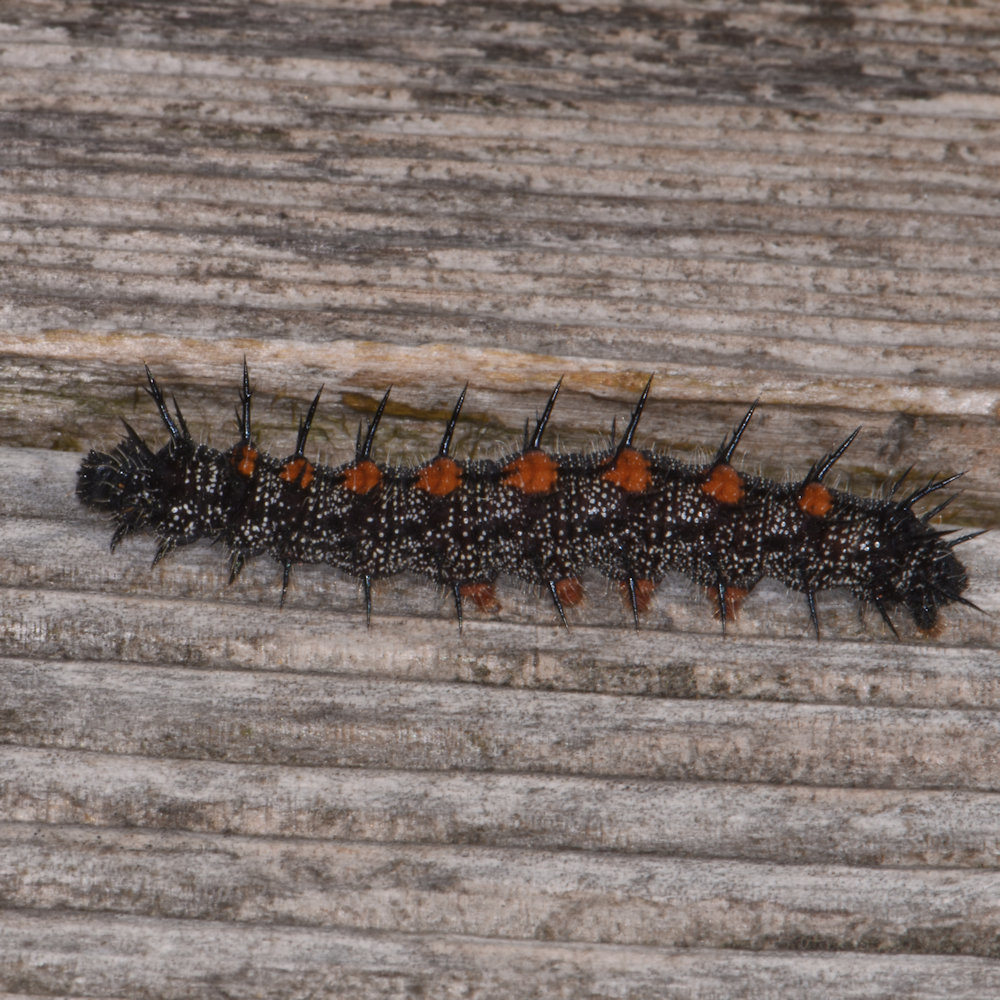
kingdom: Animalia
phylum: Arthropoda
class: Insecta
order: Lepidoptera
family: Nymphalidae
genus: Nymphalis
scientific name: Nymphalis antiopa
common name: Camberwell beauty
